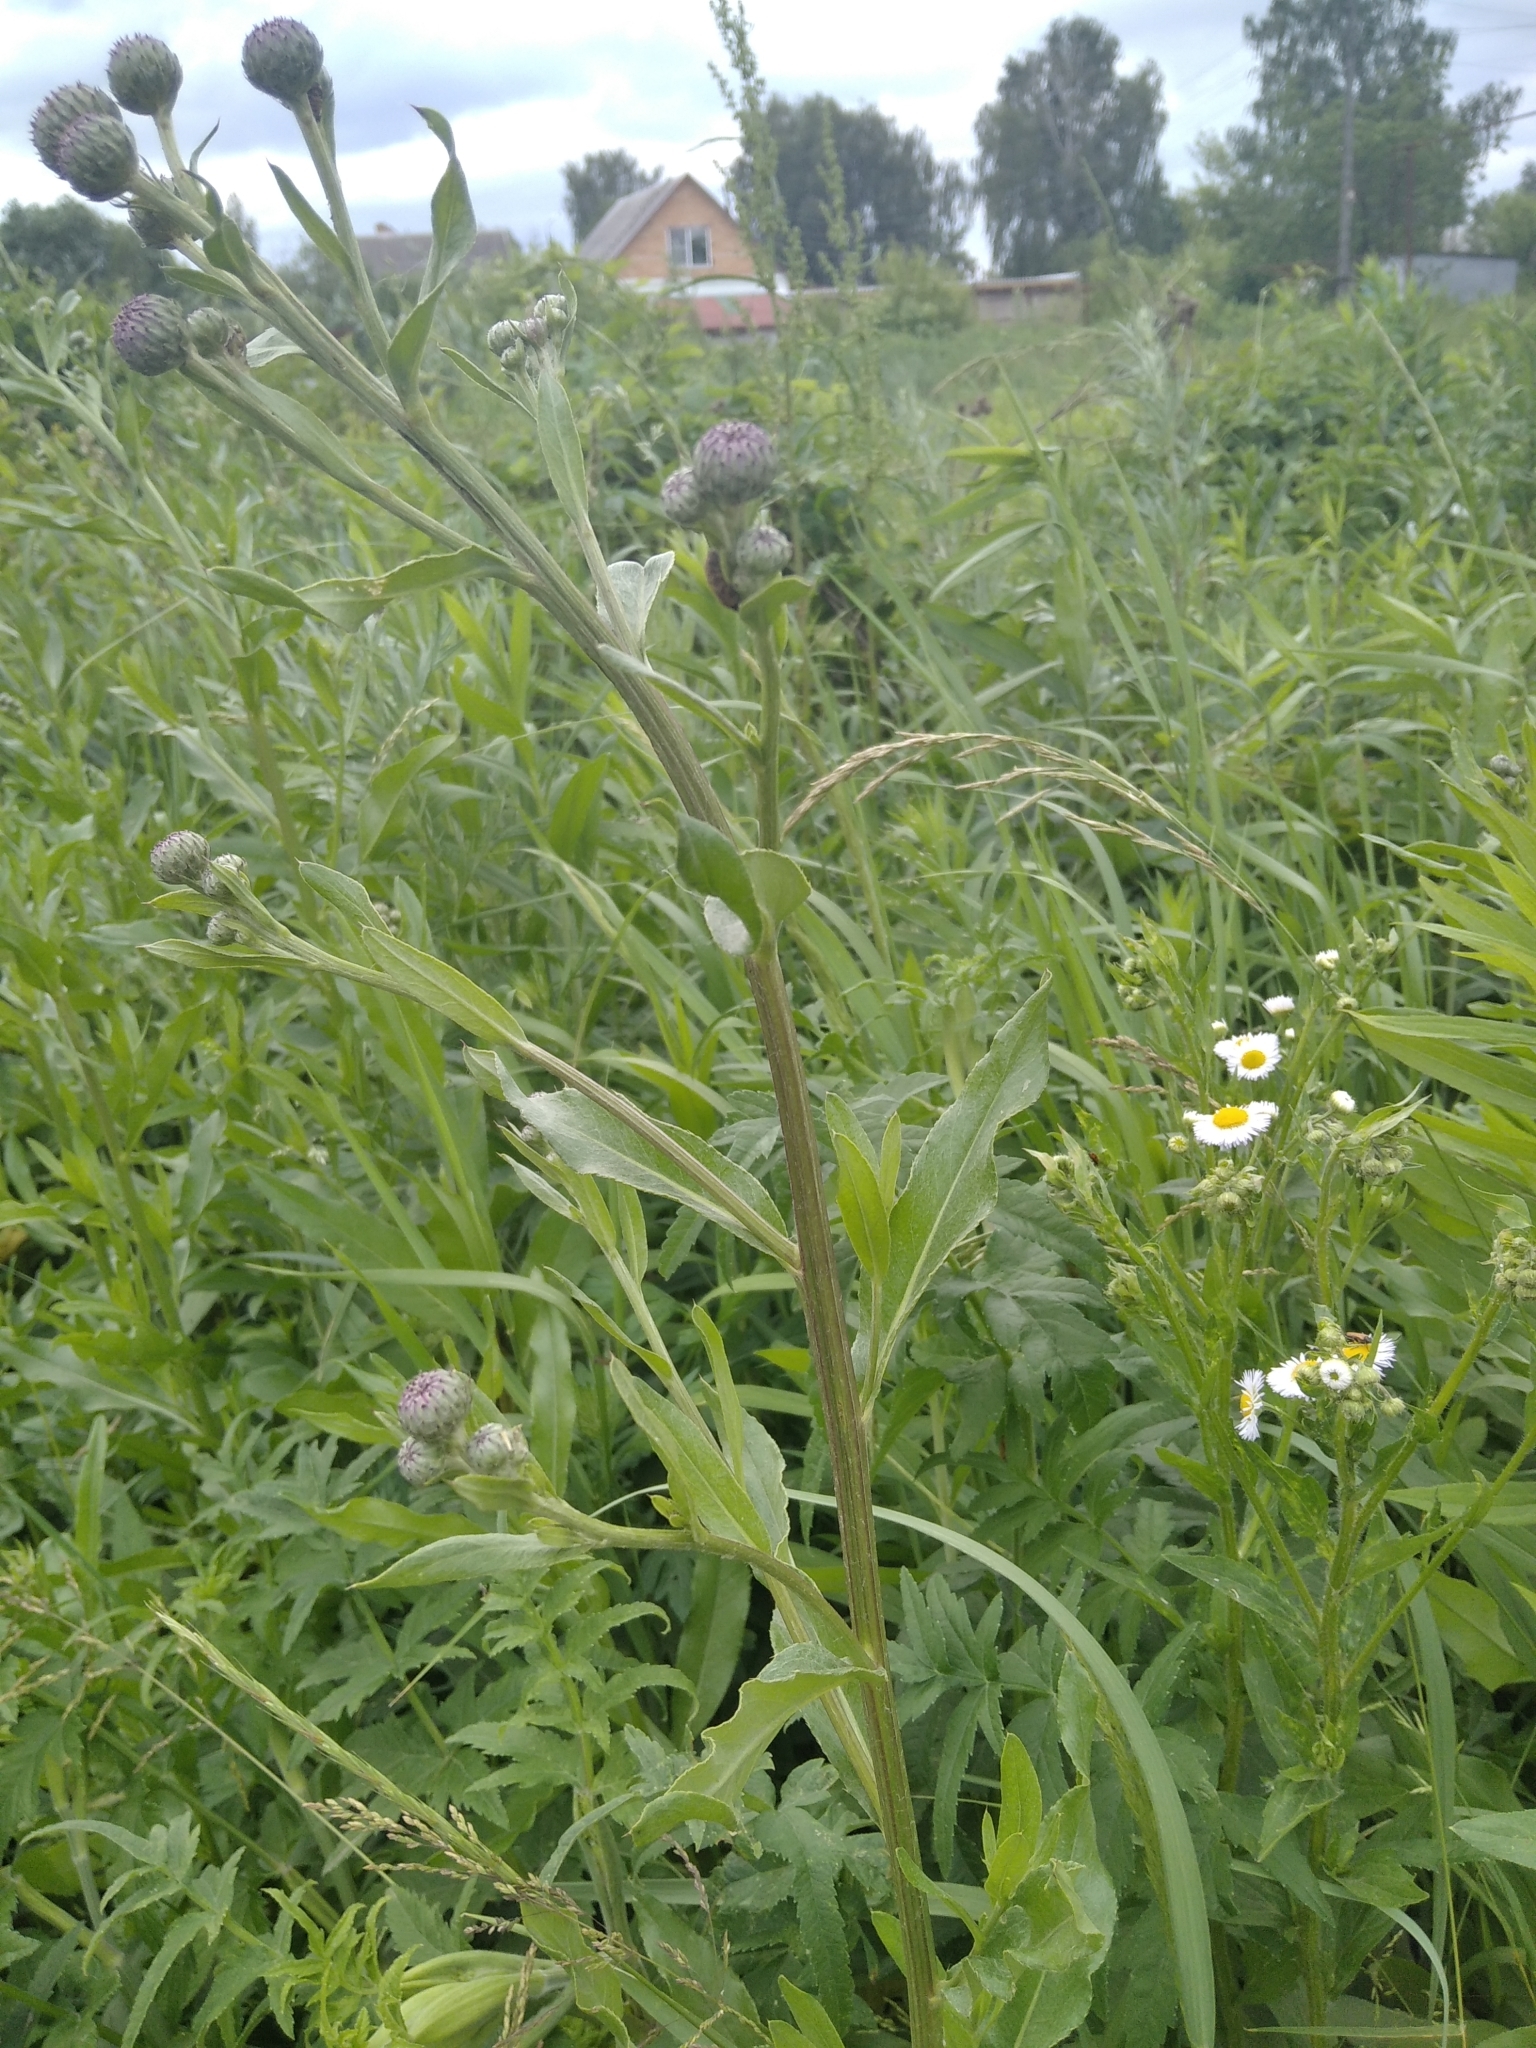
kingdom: Plantae
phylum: Tracheophyta
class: Magnoliopsida
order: Asterales
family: Asteraceae
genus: Cirsium
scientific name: Cirsium arvense
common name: Creeping thistle
